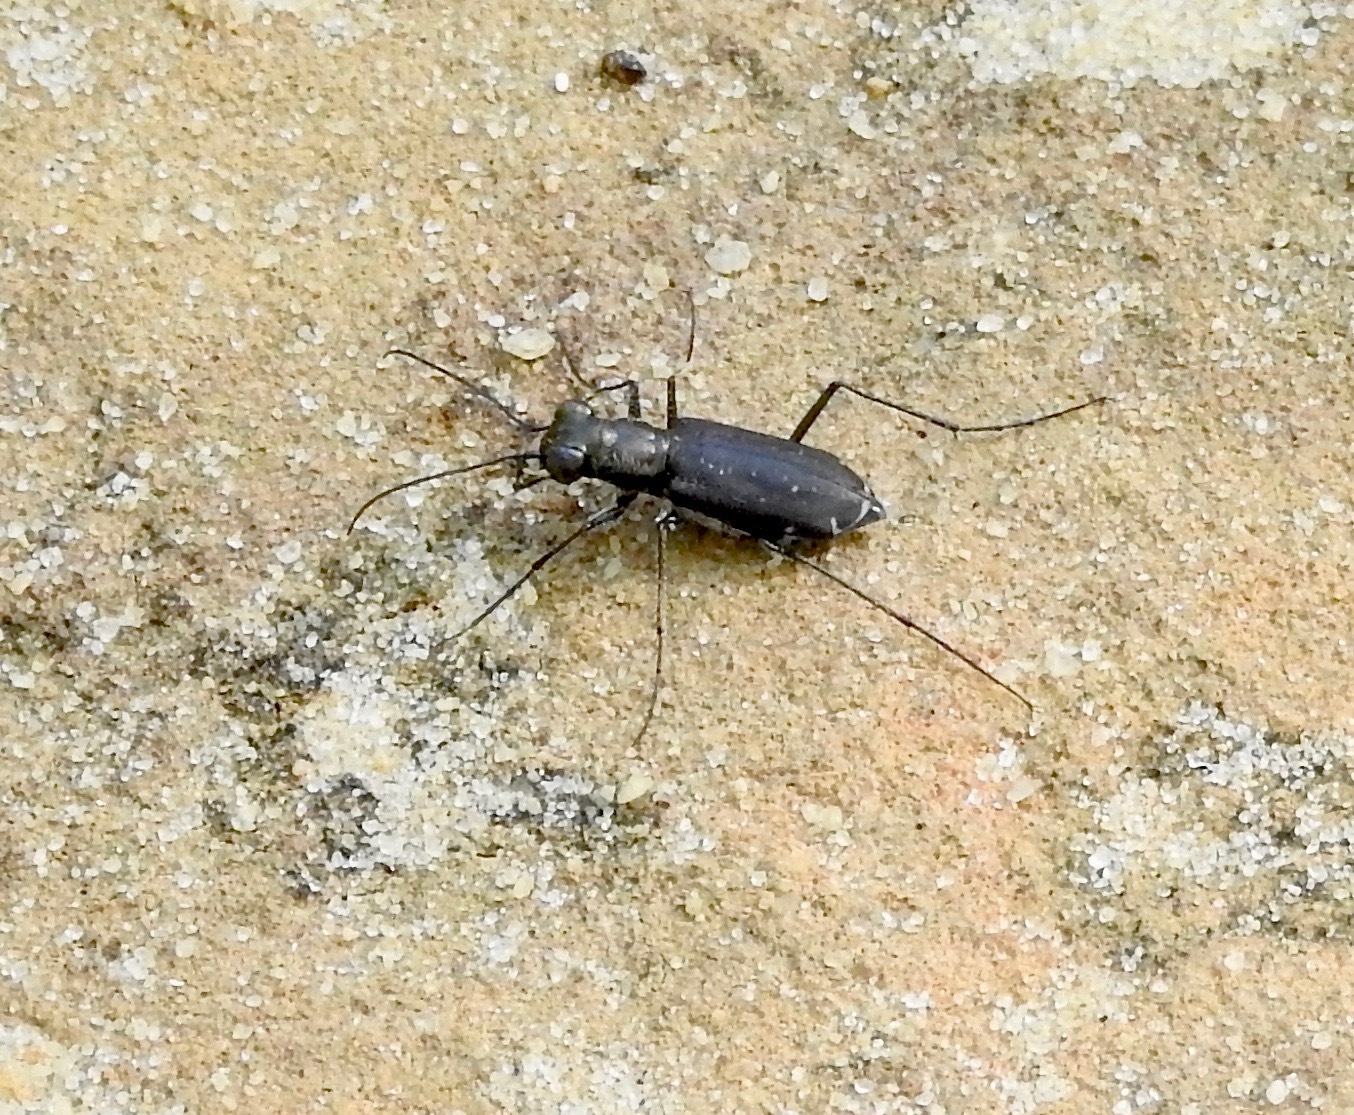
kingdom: Animalia
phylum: Arthropoda
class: Insecta
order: Coleoptera
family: Carabidae
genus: Cicindela
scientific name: Cicindela punctulata
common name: Punctured tiger beetle
